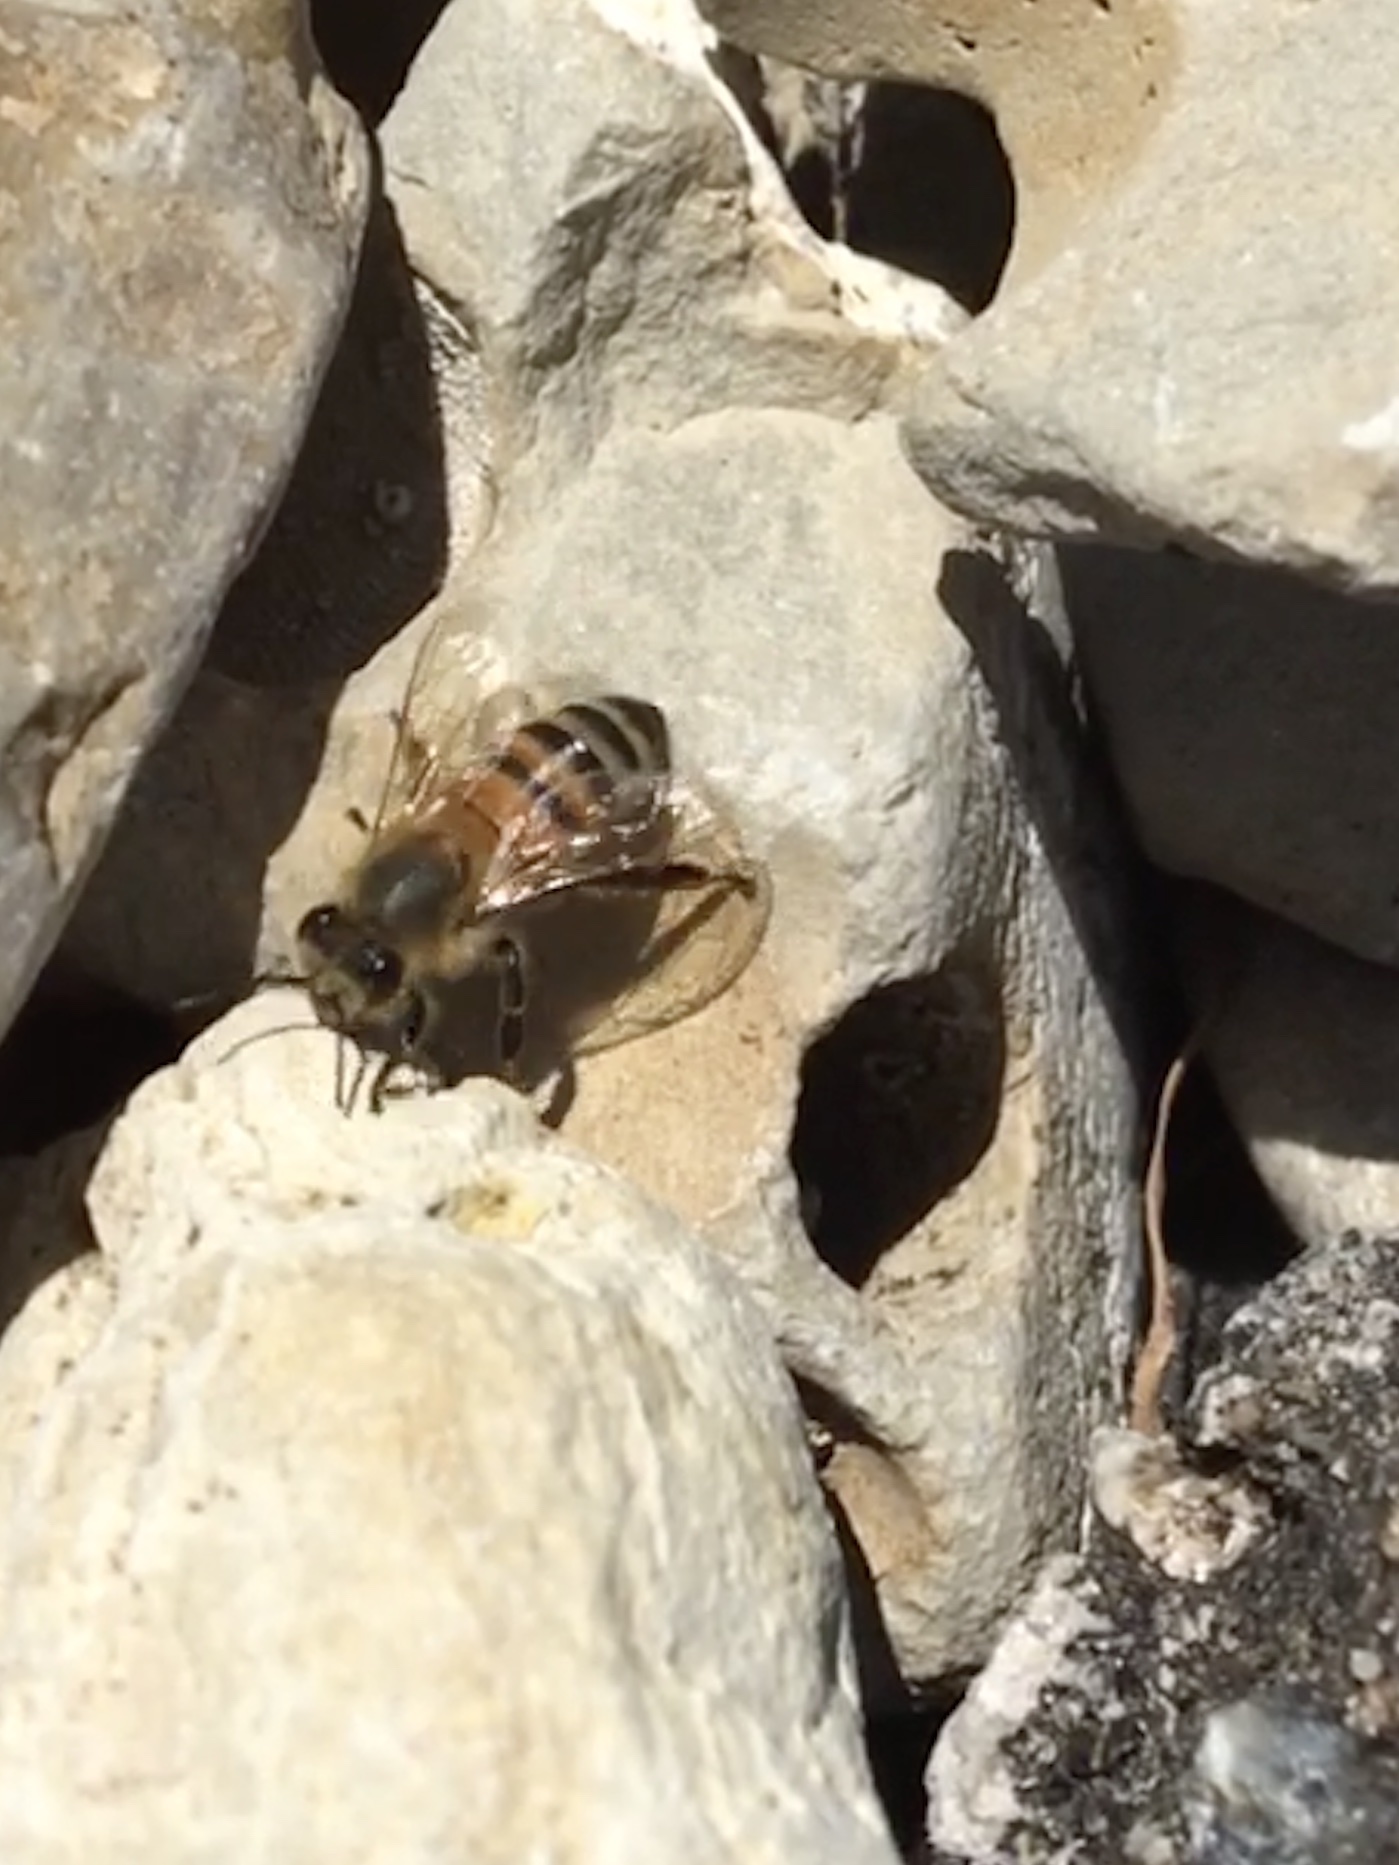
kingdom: Animalia
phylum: Arthropoda
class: Insecta
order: Hymenoptera
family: Apidae
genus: Apis
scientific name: Apis mellifera
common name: Honey bee
